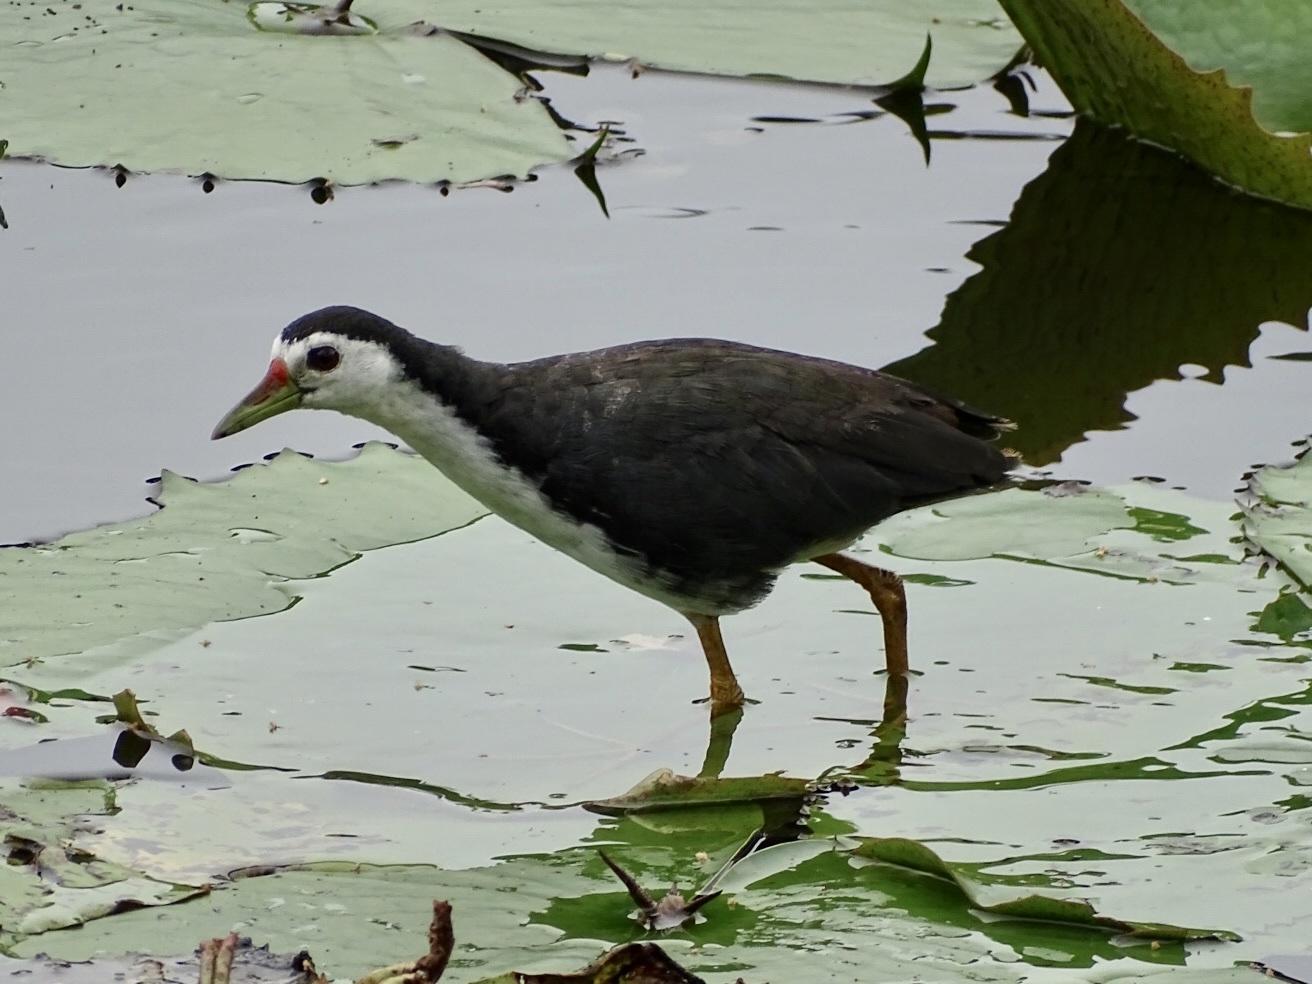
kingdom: Animalia
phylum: Chordata
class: Aves
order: Gruiformes
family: Rallidae
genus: Amaurornis
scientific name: Amaurornis phoenicurus
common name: White-breasted waterhen
